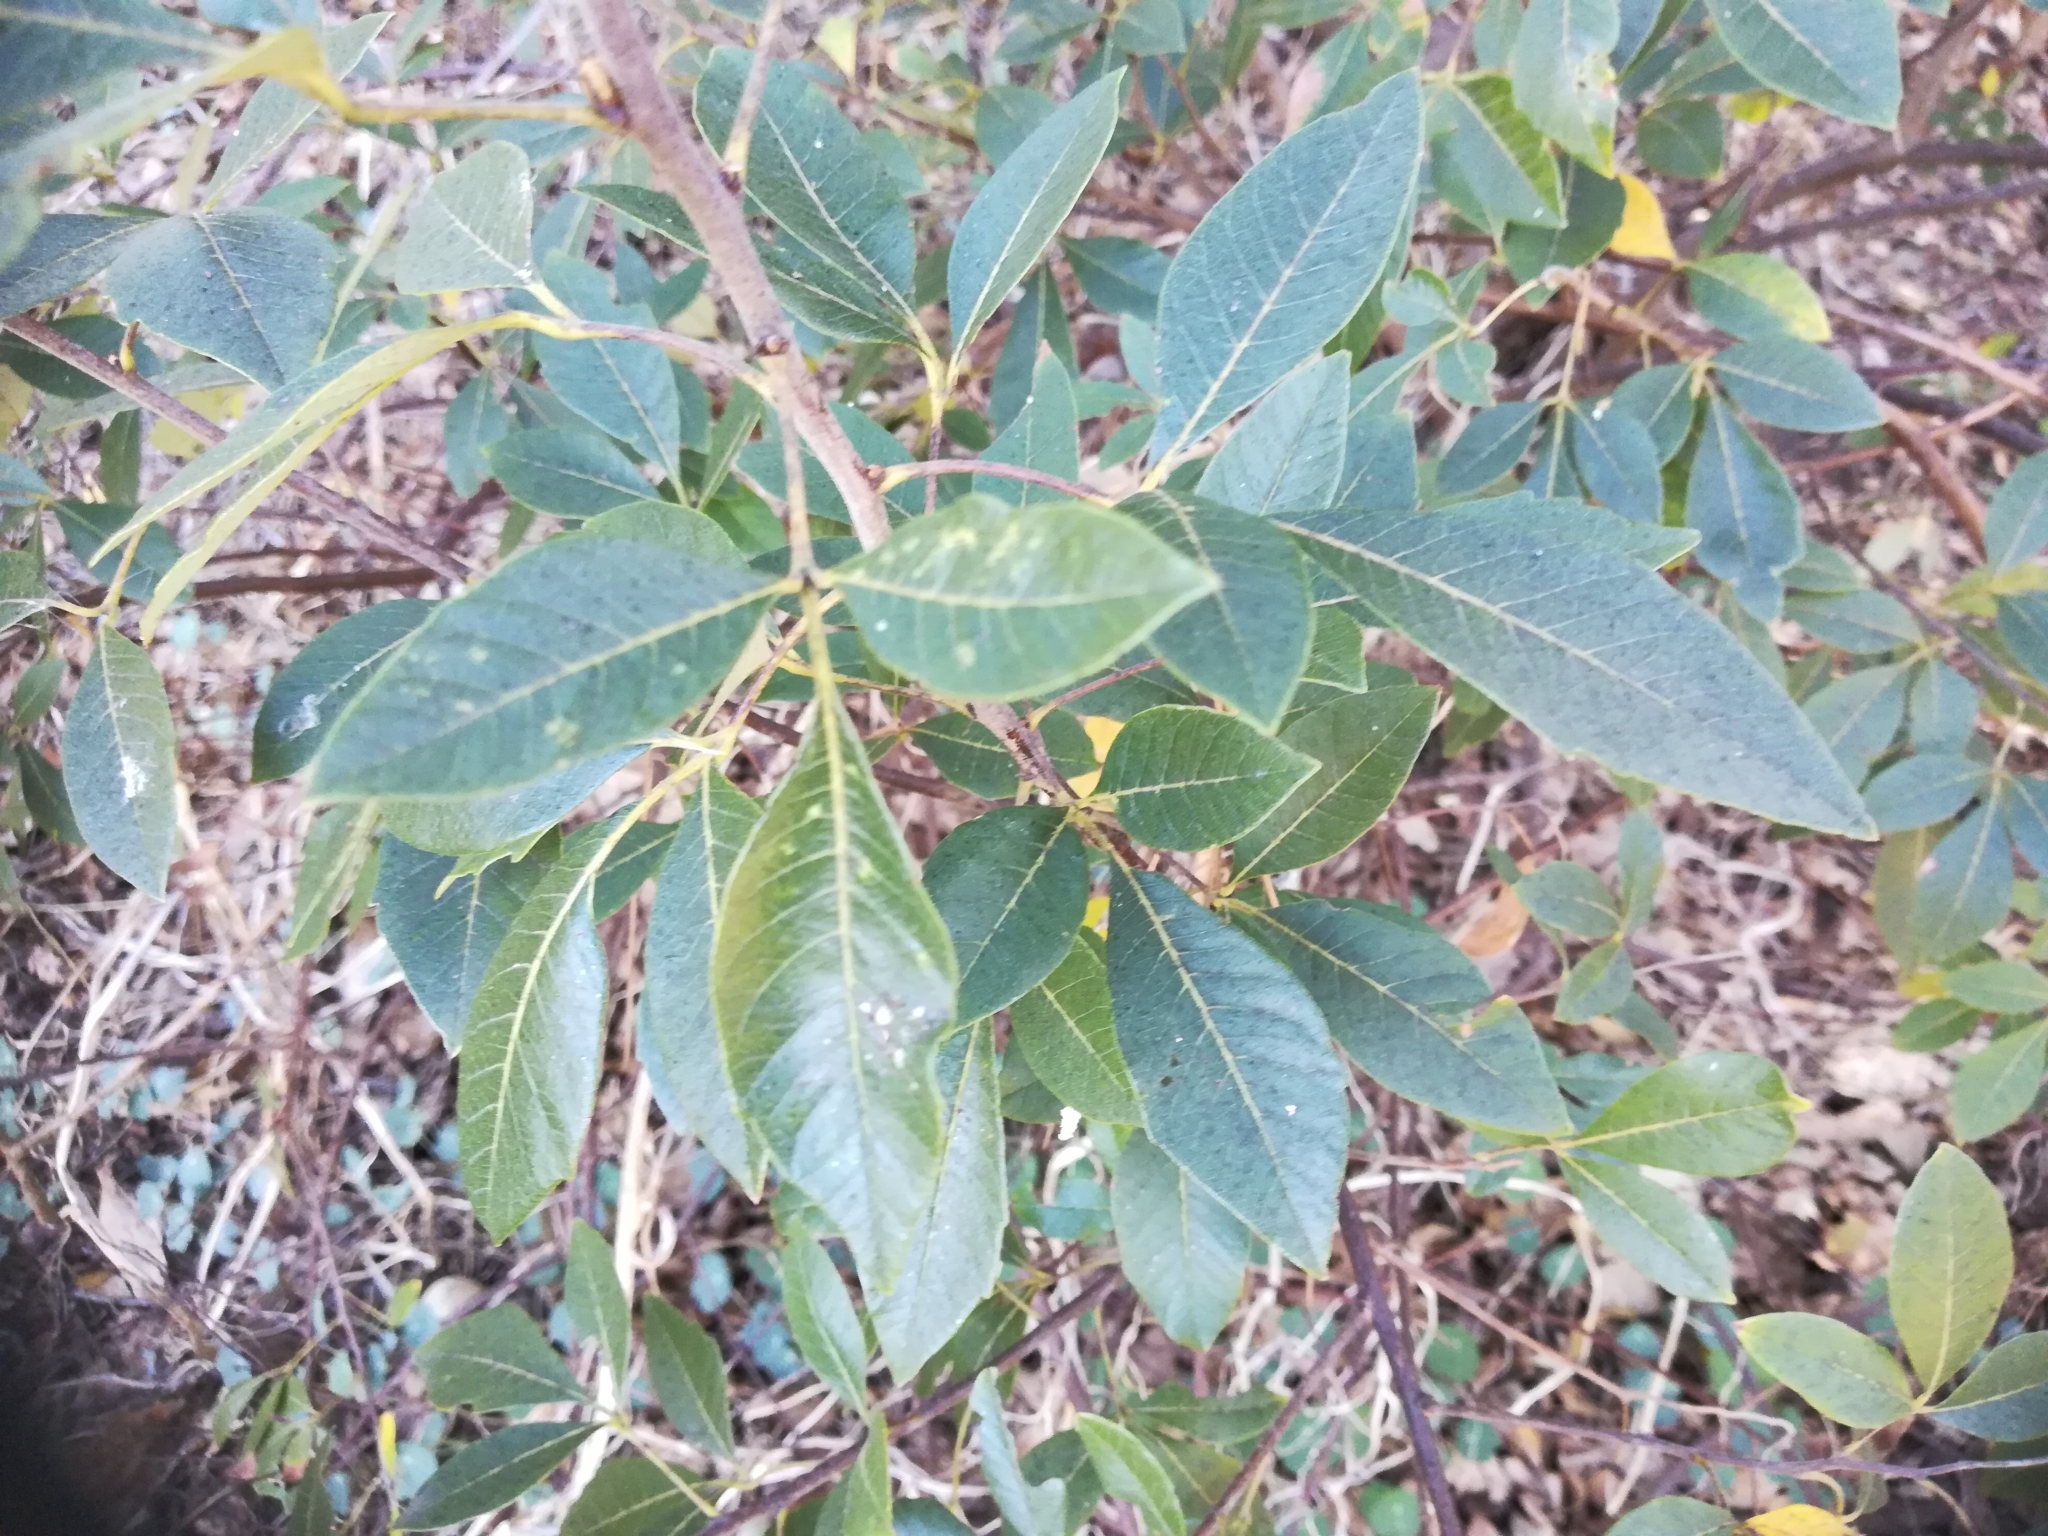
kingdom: Plantae
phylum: Tracheophyta
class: Magnoliopsida
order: Sapindales
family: Anacardiaceae
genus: Searsia
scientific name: Searsia tomentosa
